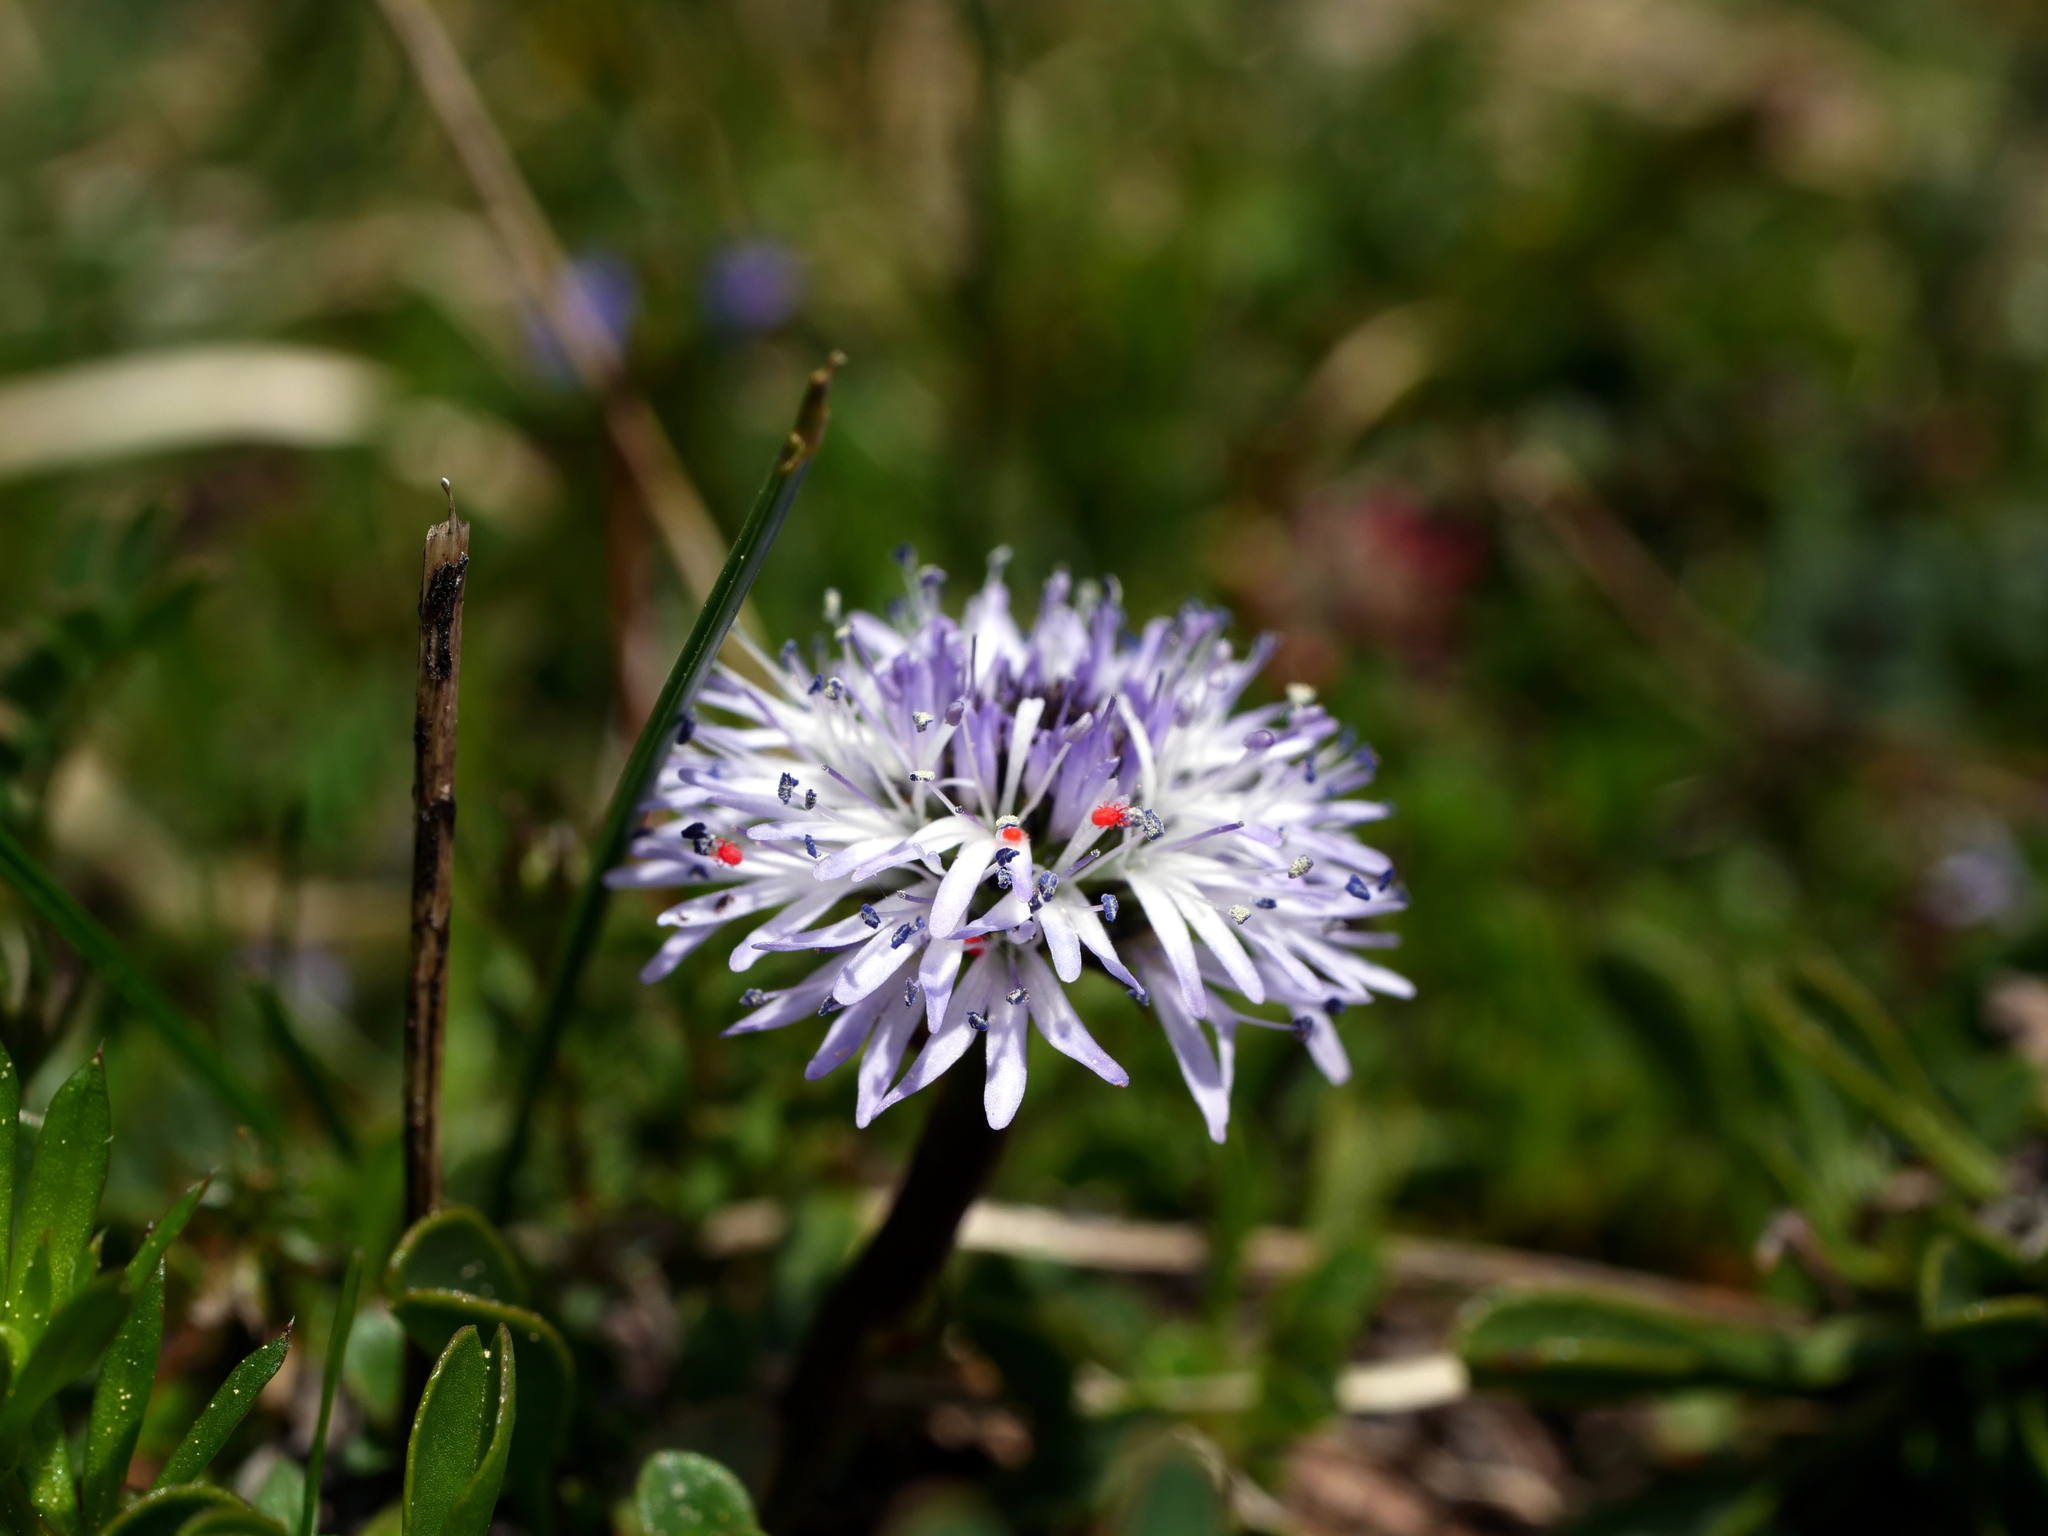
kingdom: Plantae
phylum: Tracheophyta
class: Magnoliopsida
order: Lamiales
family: Plantaginaceae
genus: Globularia
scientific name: Globularia cordifolia
